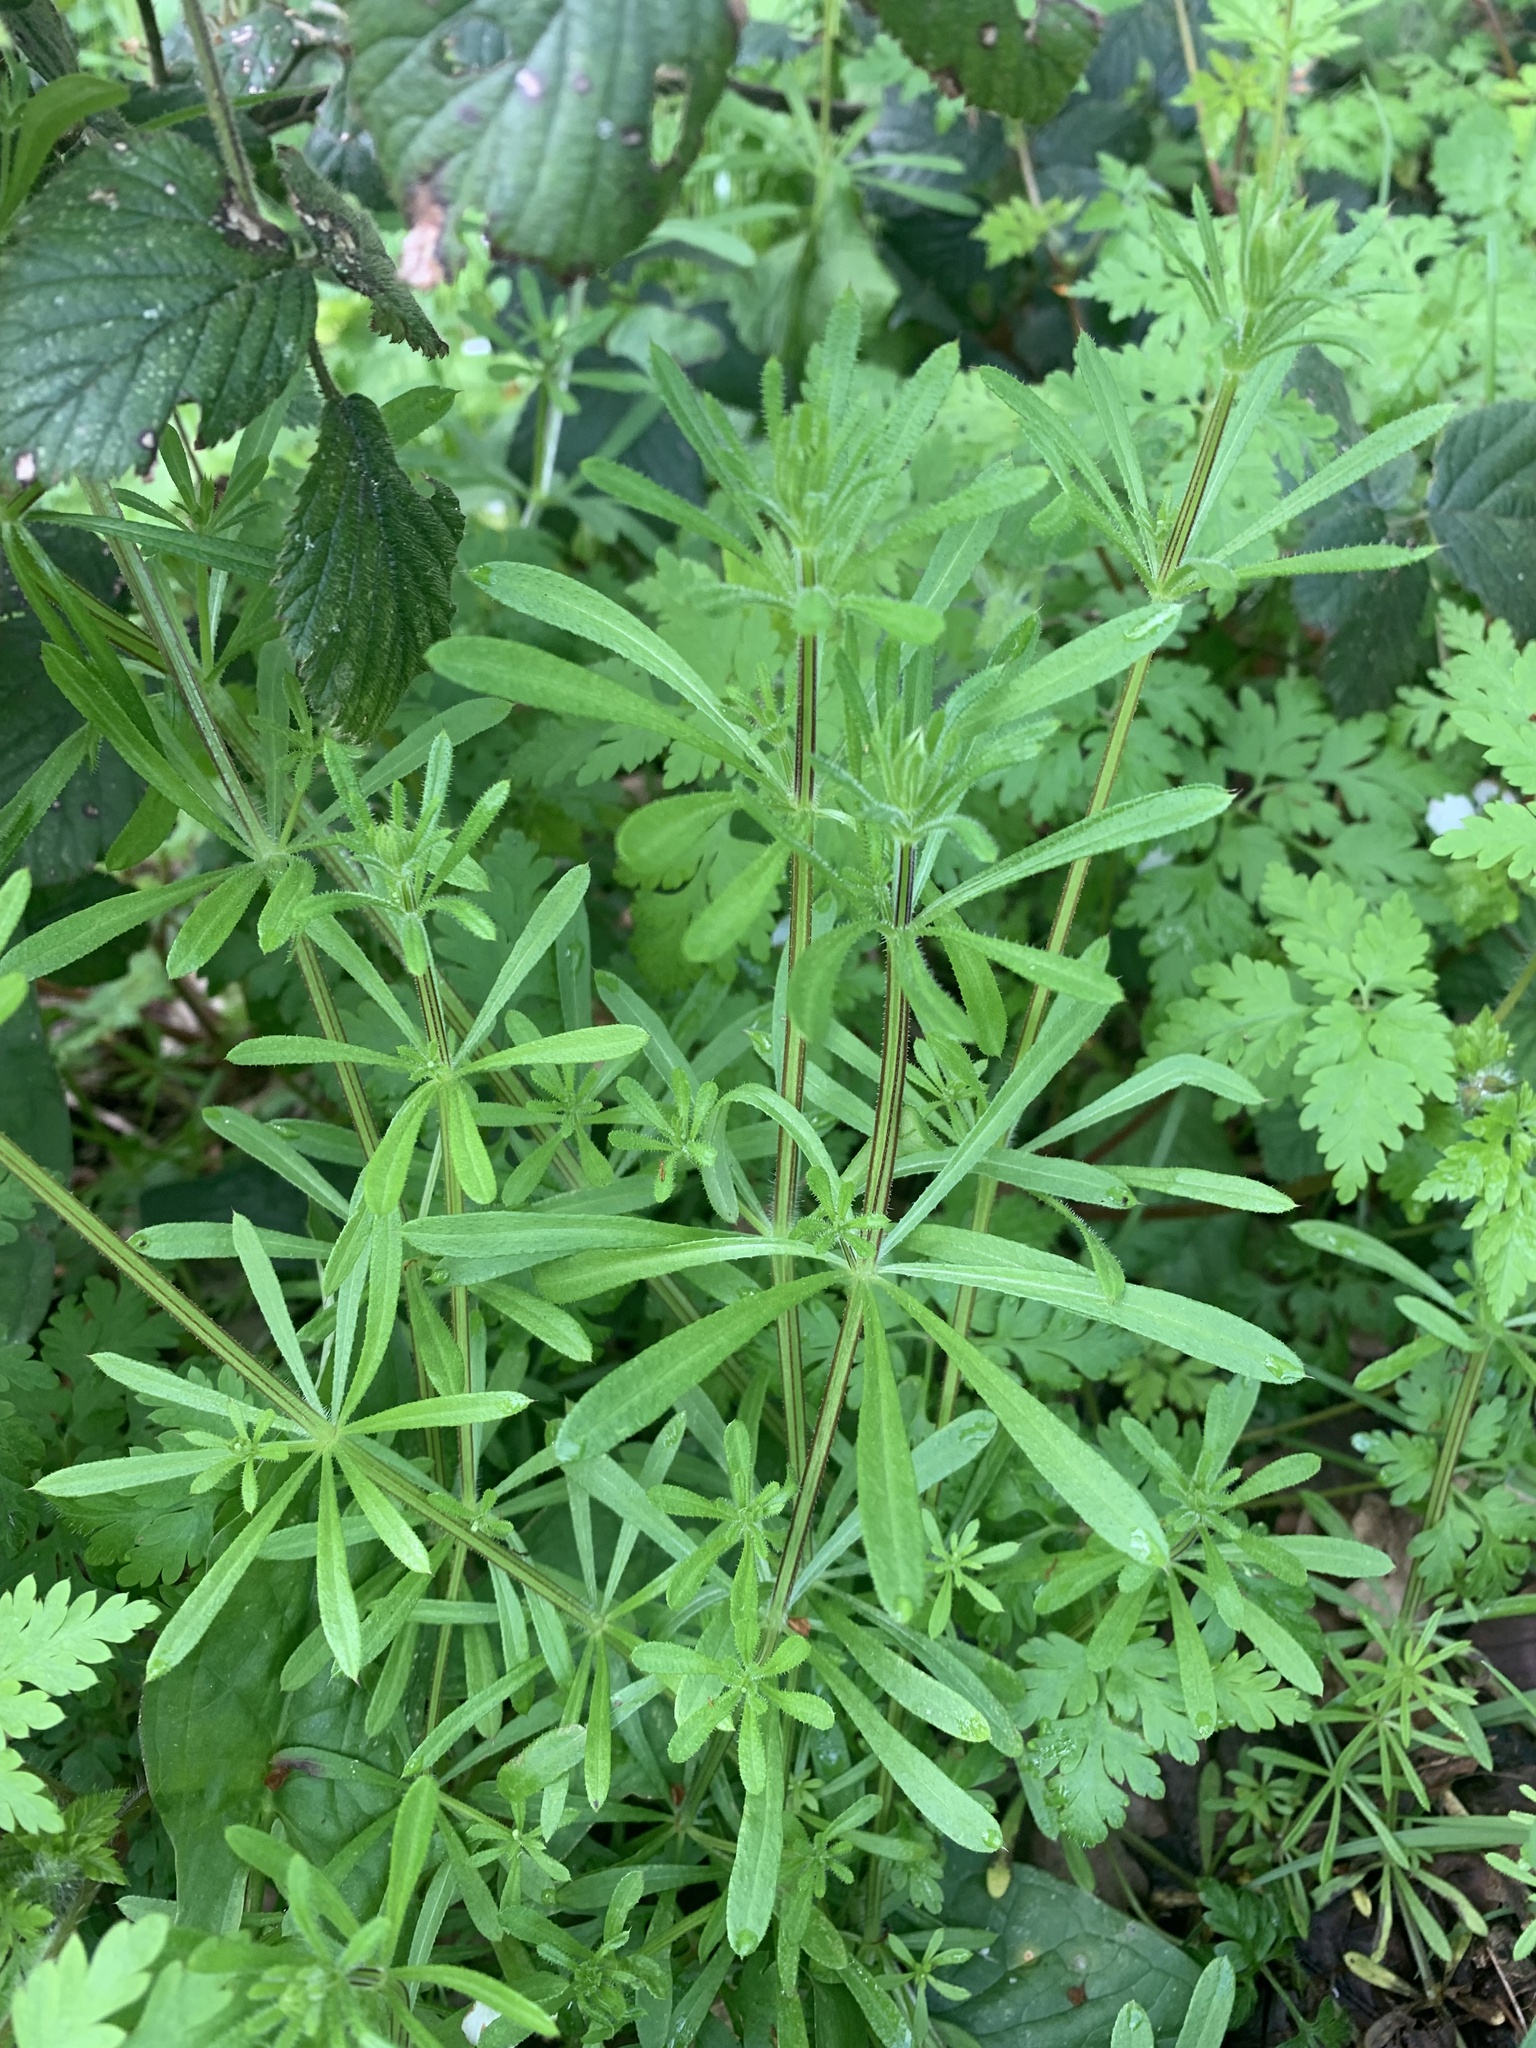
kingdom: Plantae
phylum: Tracheophyta
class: Magnoliopsida
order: Gentianales
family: Rubiaceae
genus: Galium
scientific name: Galium aparine
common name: Cleavers
